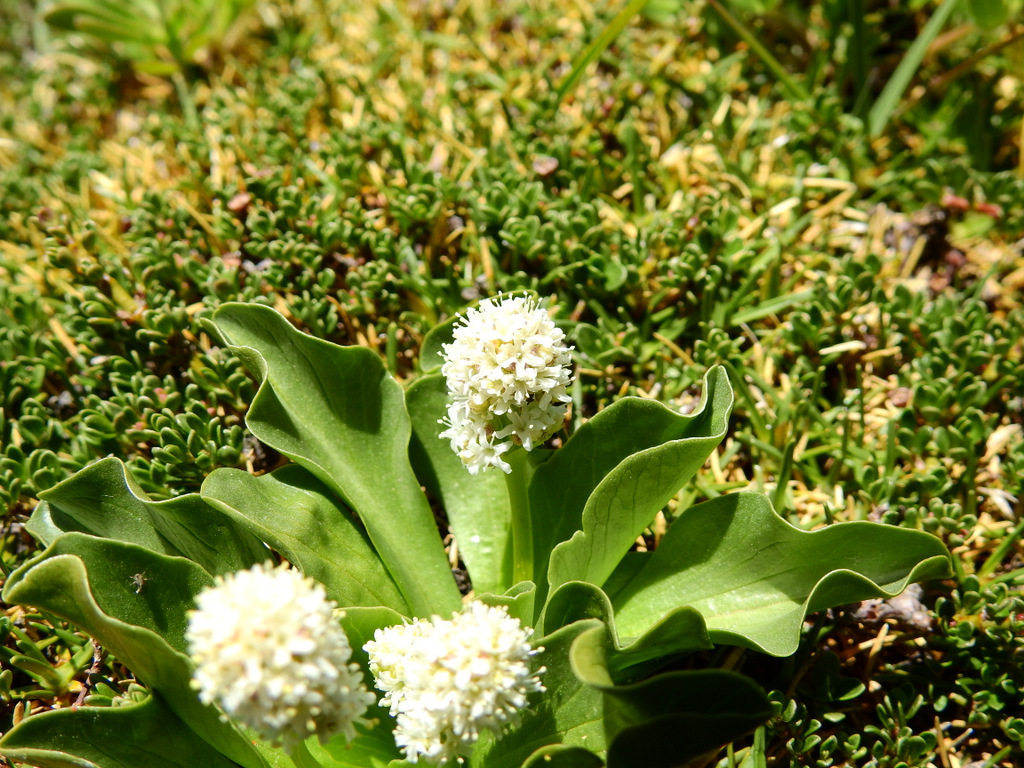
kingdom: Plantae
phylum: Tracheophyta
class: Magnoliopsida
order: Dipsacales
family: Caprifoliaceae
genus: Valeriana
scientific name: Valeriana macrorhiza
